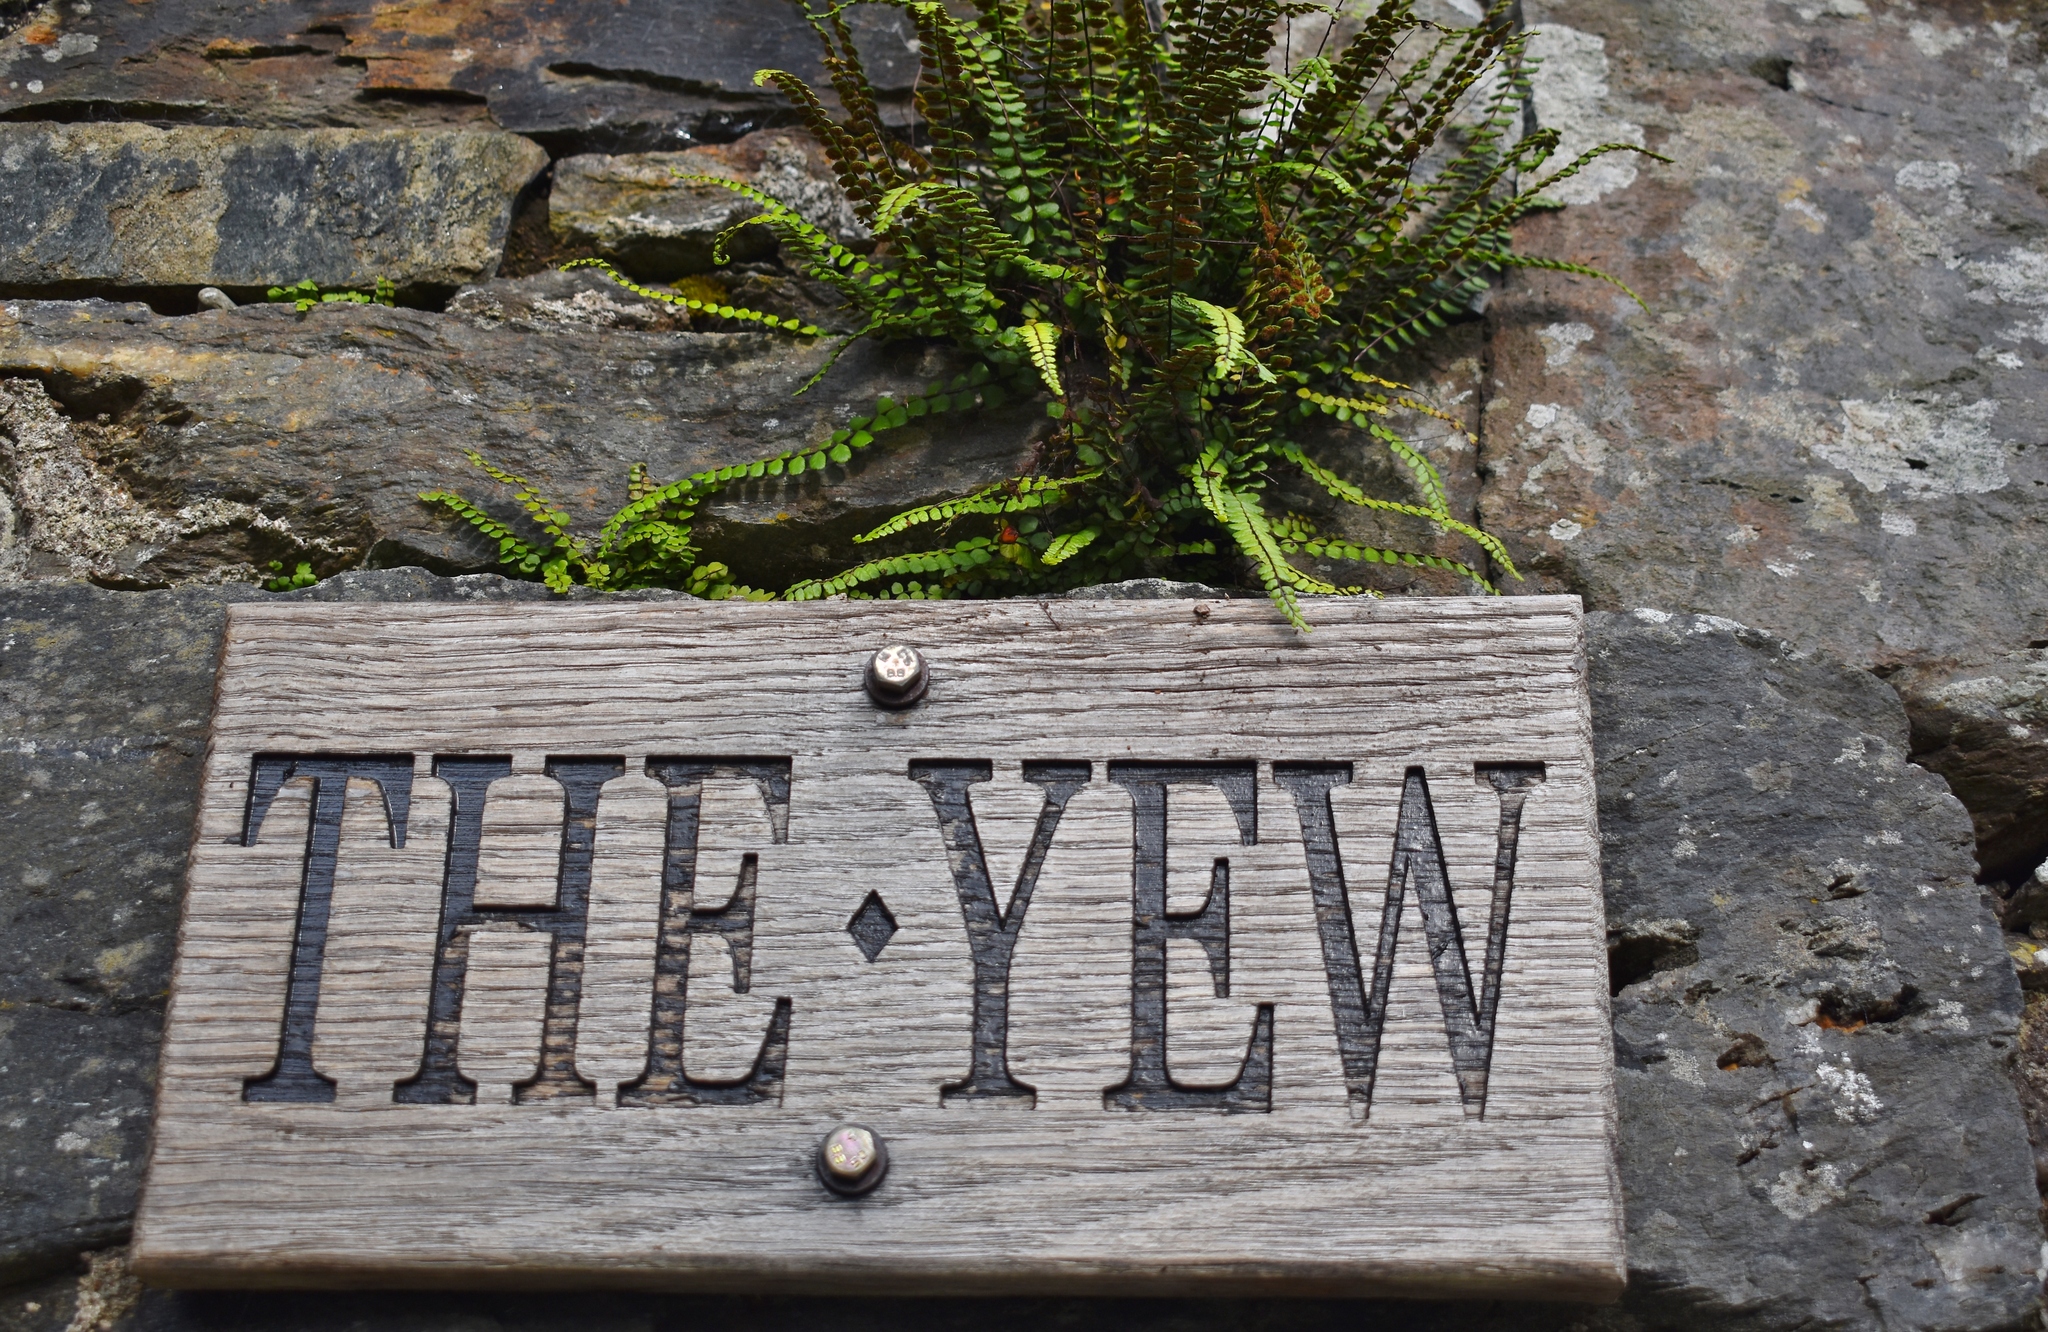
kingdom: Plantae
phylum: Tracheophyta
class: Polypodiopsida
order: Polypodiales
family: Aspleniaceae
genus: Asplenium
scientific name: Asplenium trichomanes
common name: Maidenhair spleenwort
